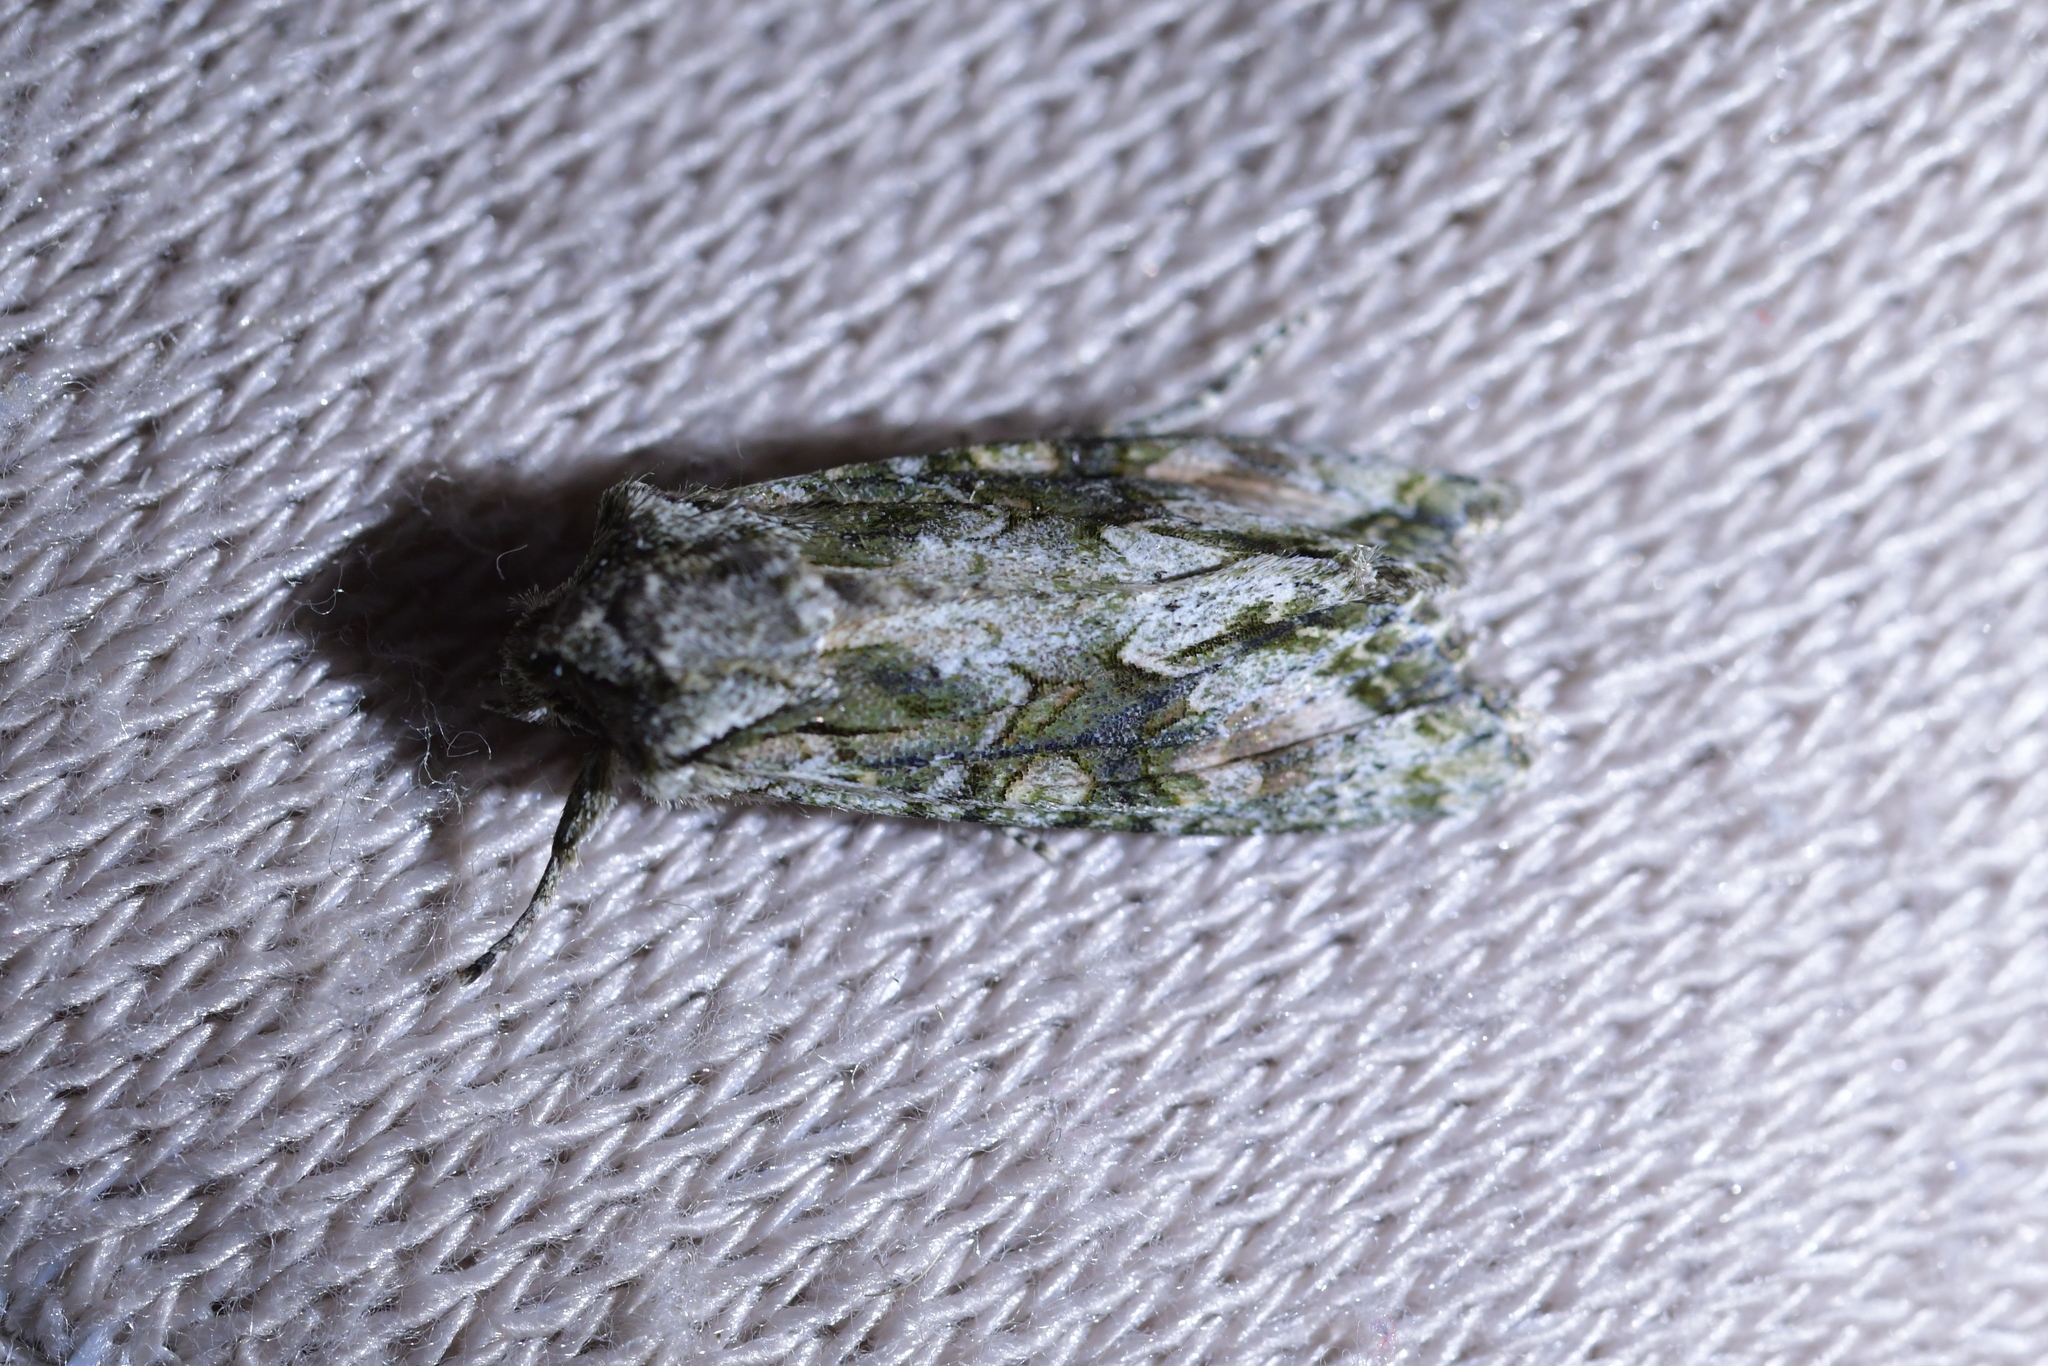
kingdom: Animalia
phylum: Arthropoda
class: Insecta
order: Lepidoptera
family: Noctuidae
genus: Ichneutica
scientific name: Ichneutica mutans
